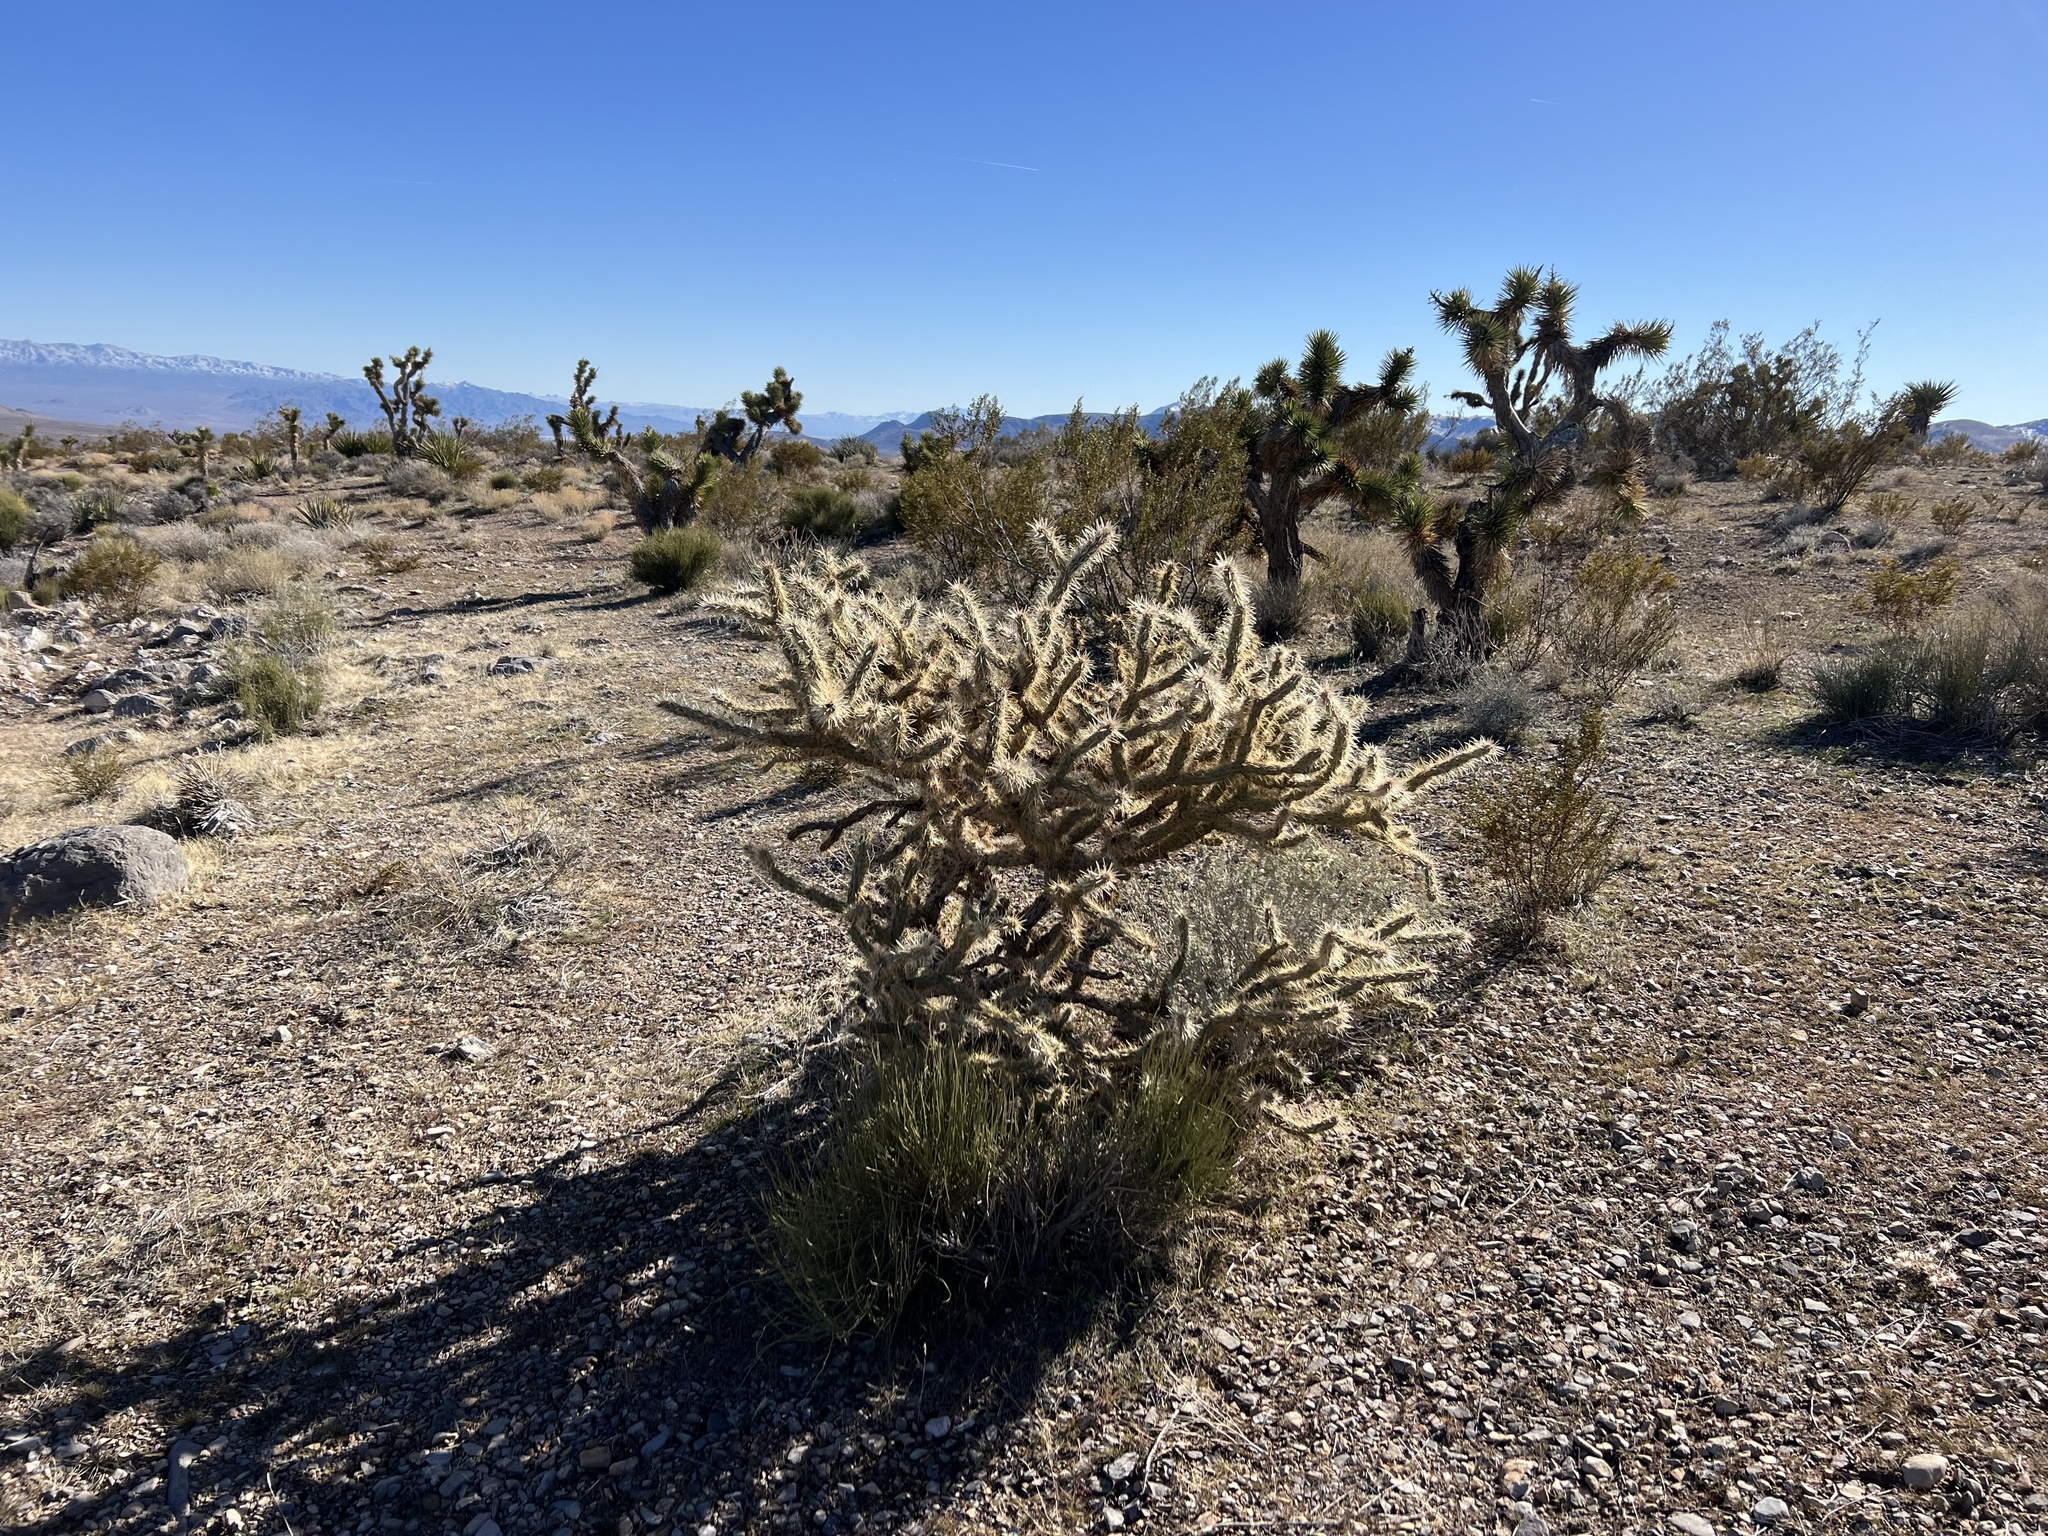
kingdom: Plantae
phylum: Tracheophyta
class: Magnoliopsida
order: Caryophyllales
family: Cactaceae
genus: Cylindropuntia
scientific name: Cylindropuntia acanthocarpa
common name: Buckhorn cholla
